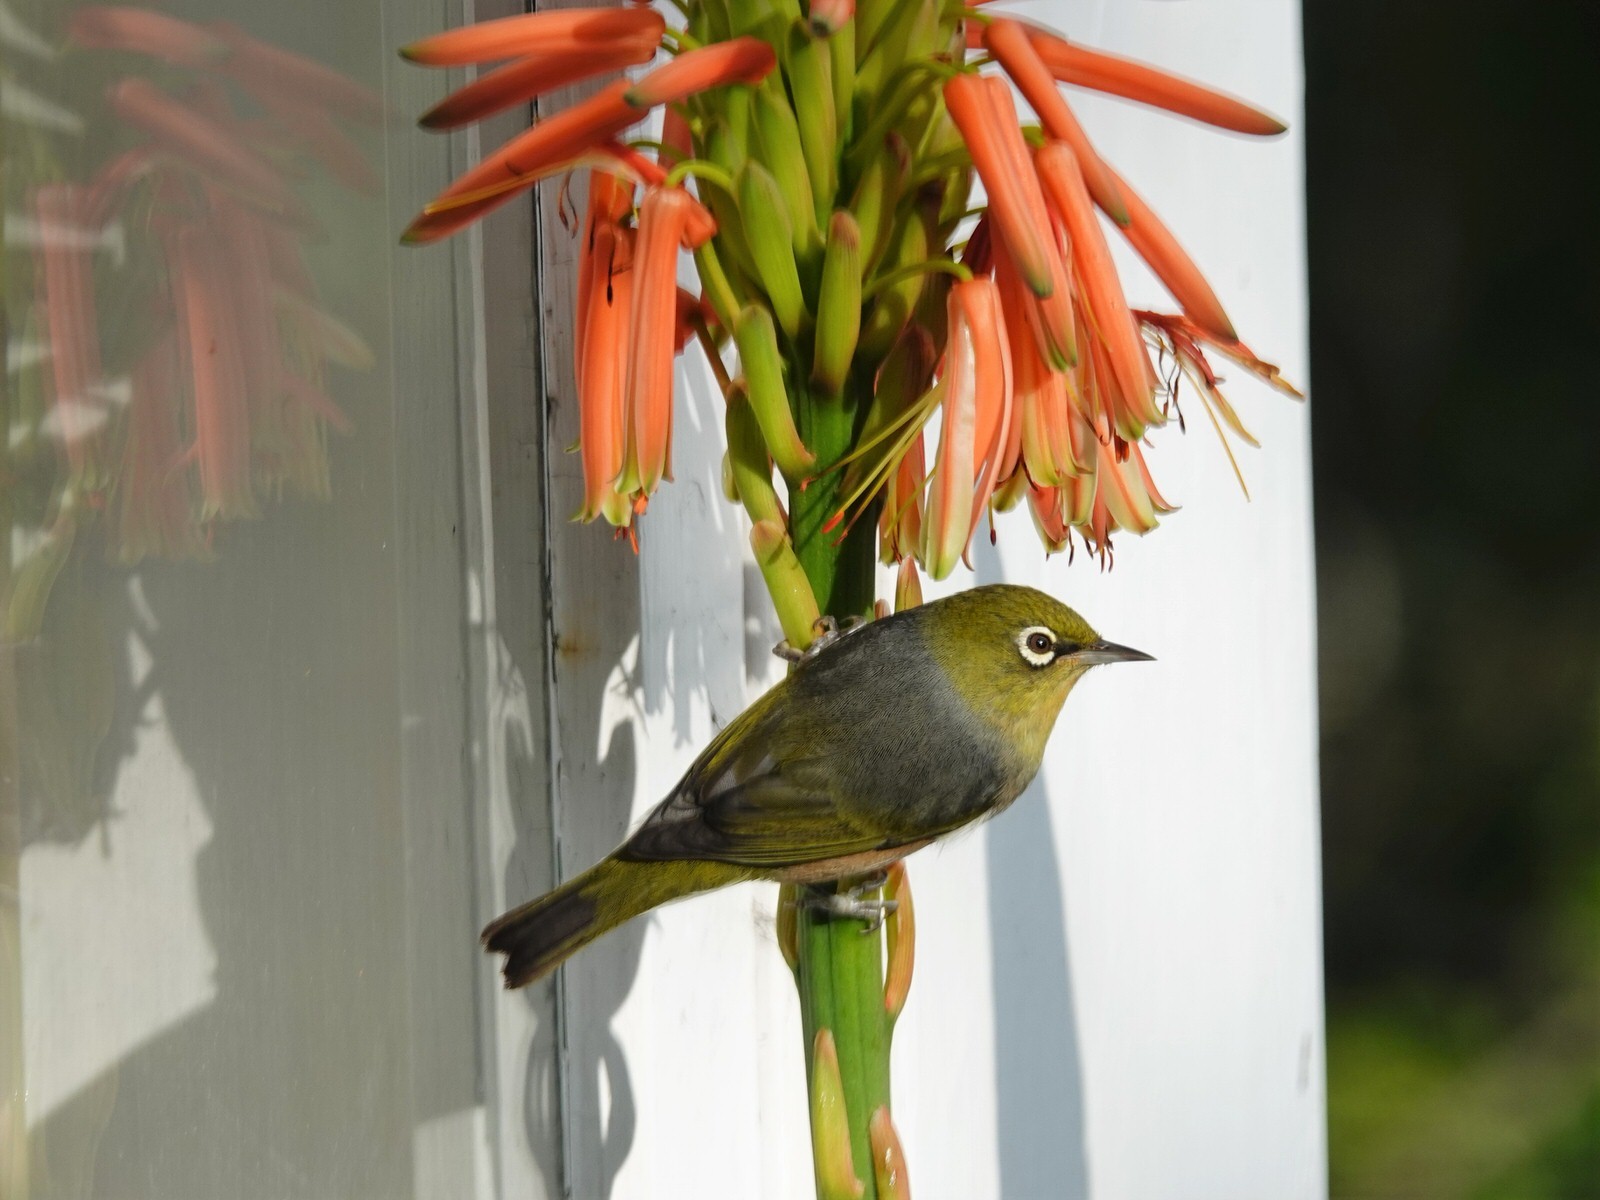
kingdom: Animalia
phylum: Chordata
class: Aves
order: Passeriformes
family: Zosteropidae
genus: Zosterops
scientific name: Zosterops lateralis
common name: Silvereye
